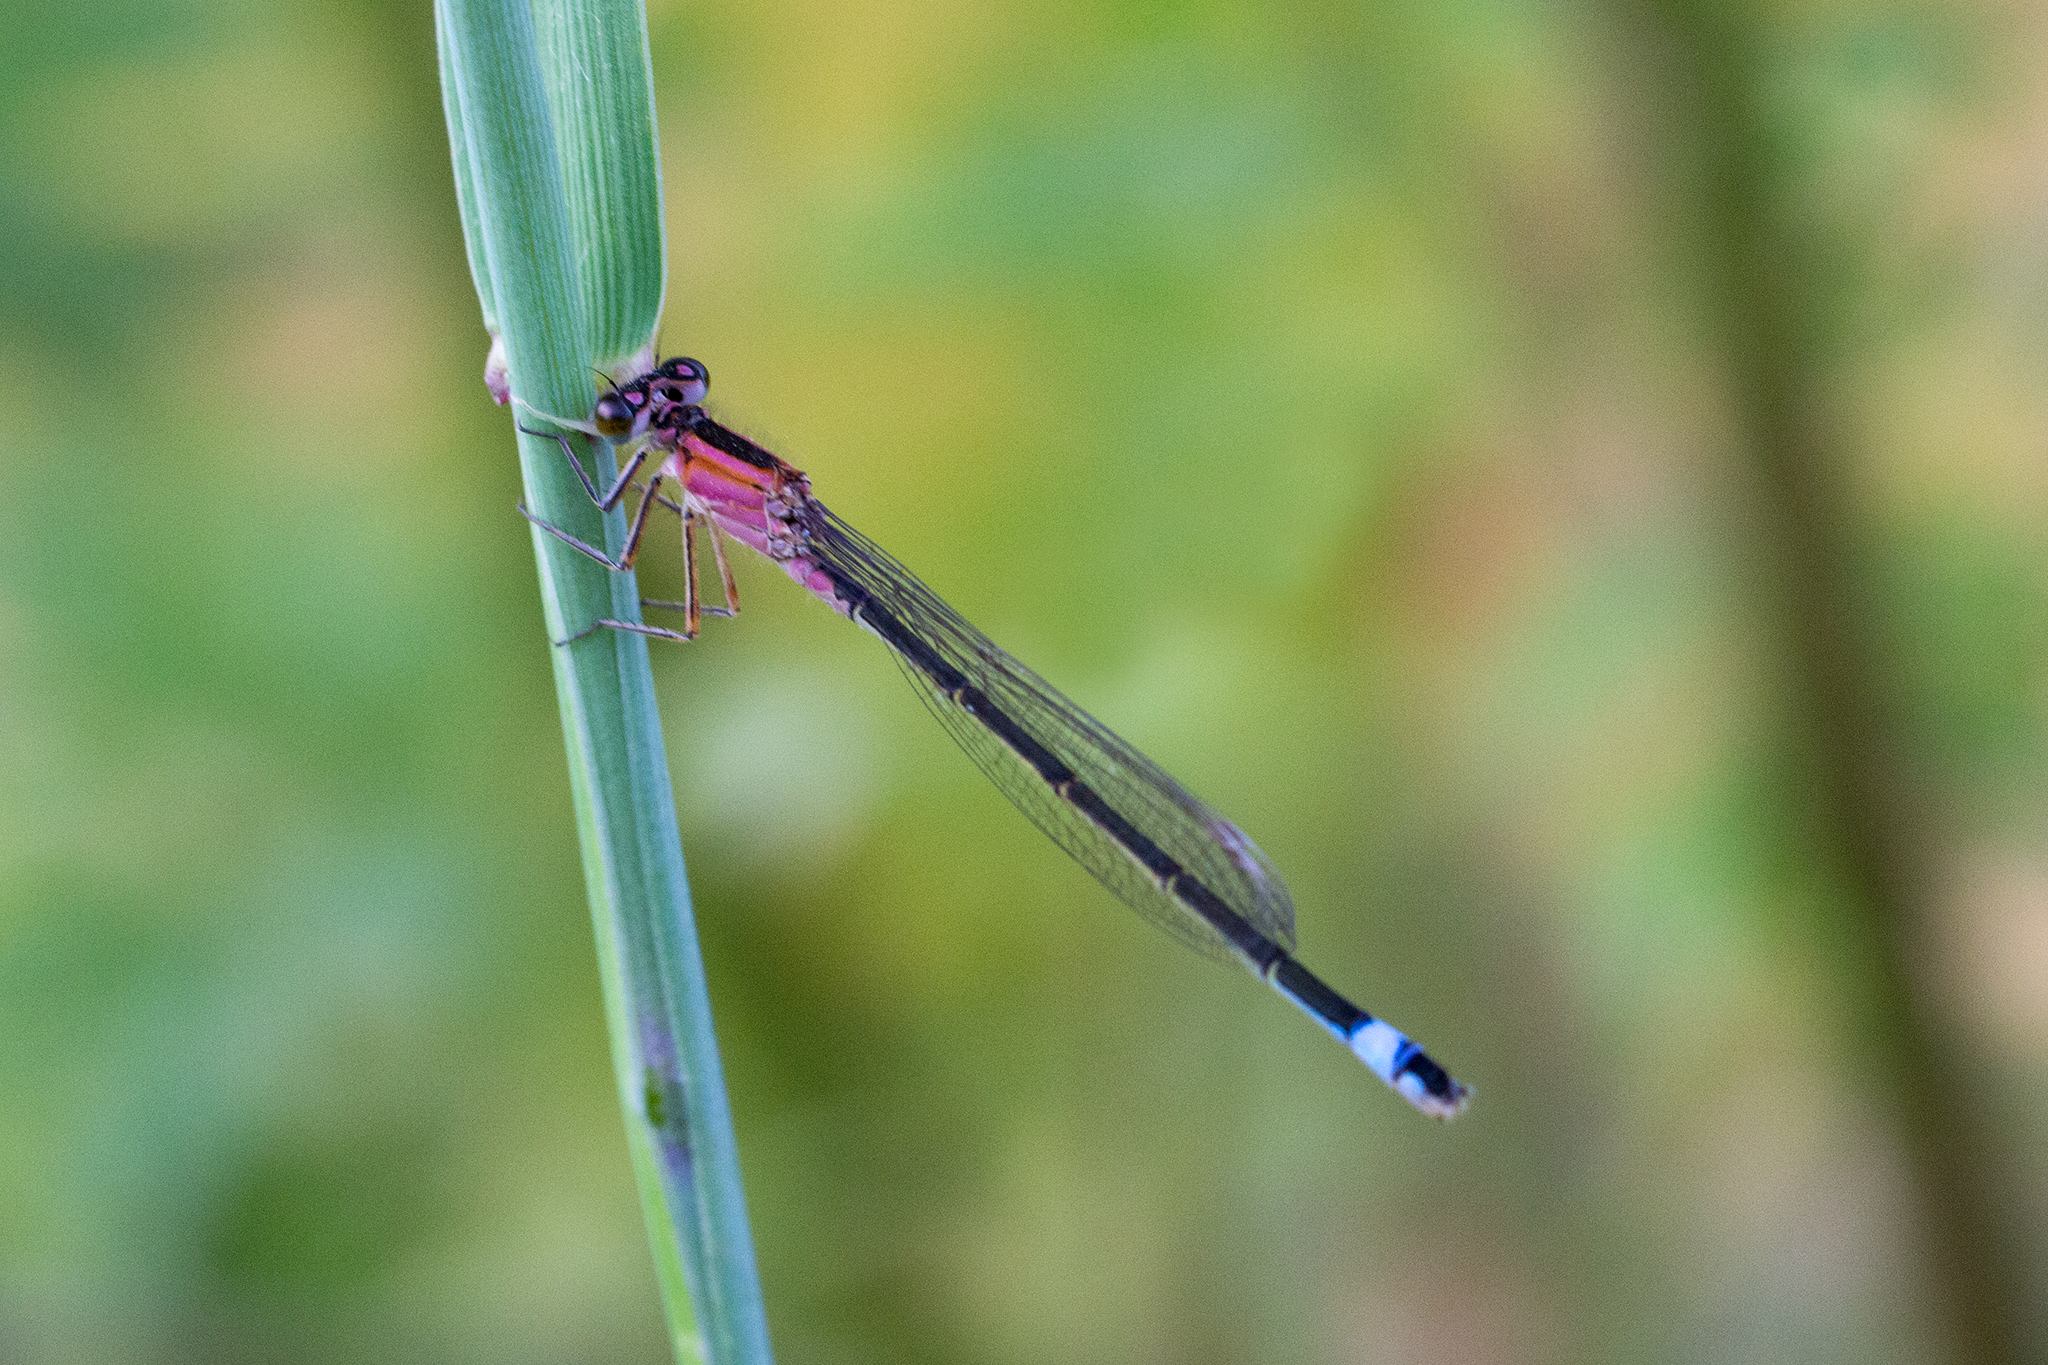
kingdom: Animalia
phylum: Arthropoda
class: Insecta
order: Odonata
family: Coenagrionidae
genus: Ischnura
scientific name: Ischnura elegans
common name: Blue-tailed damselfly
